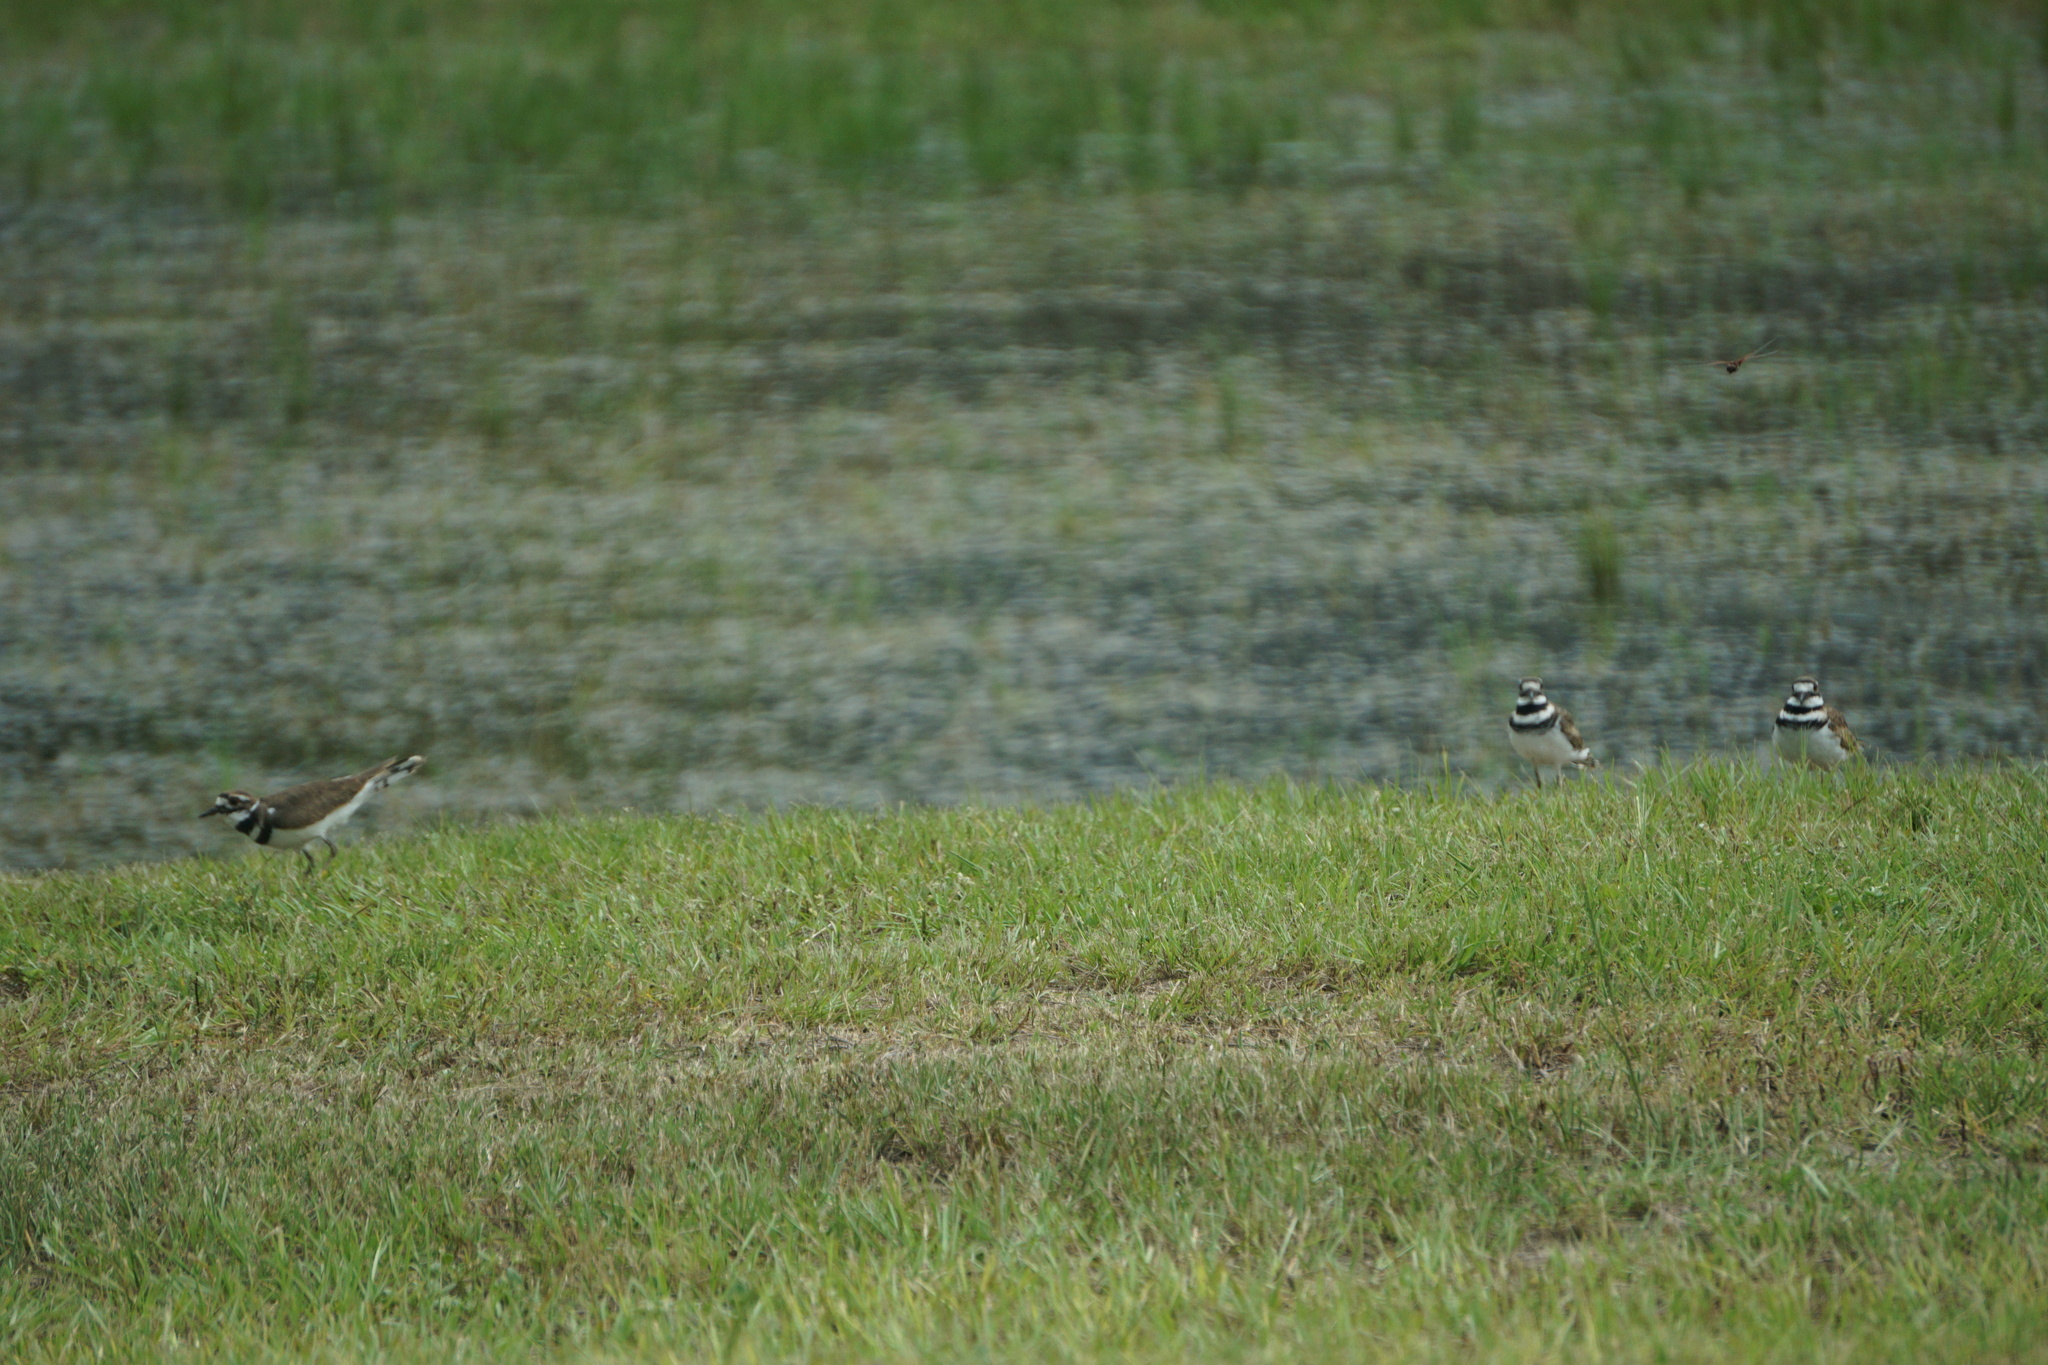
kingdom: Animalia
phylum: Chordata
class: Aves
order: Charadriiformes
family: Charadriidae
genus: Charadrius
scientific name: Charadrius vociferus
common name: Killdeer
